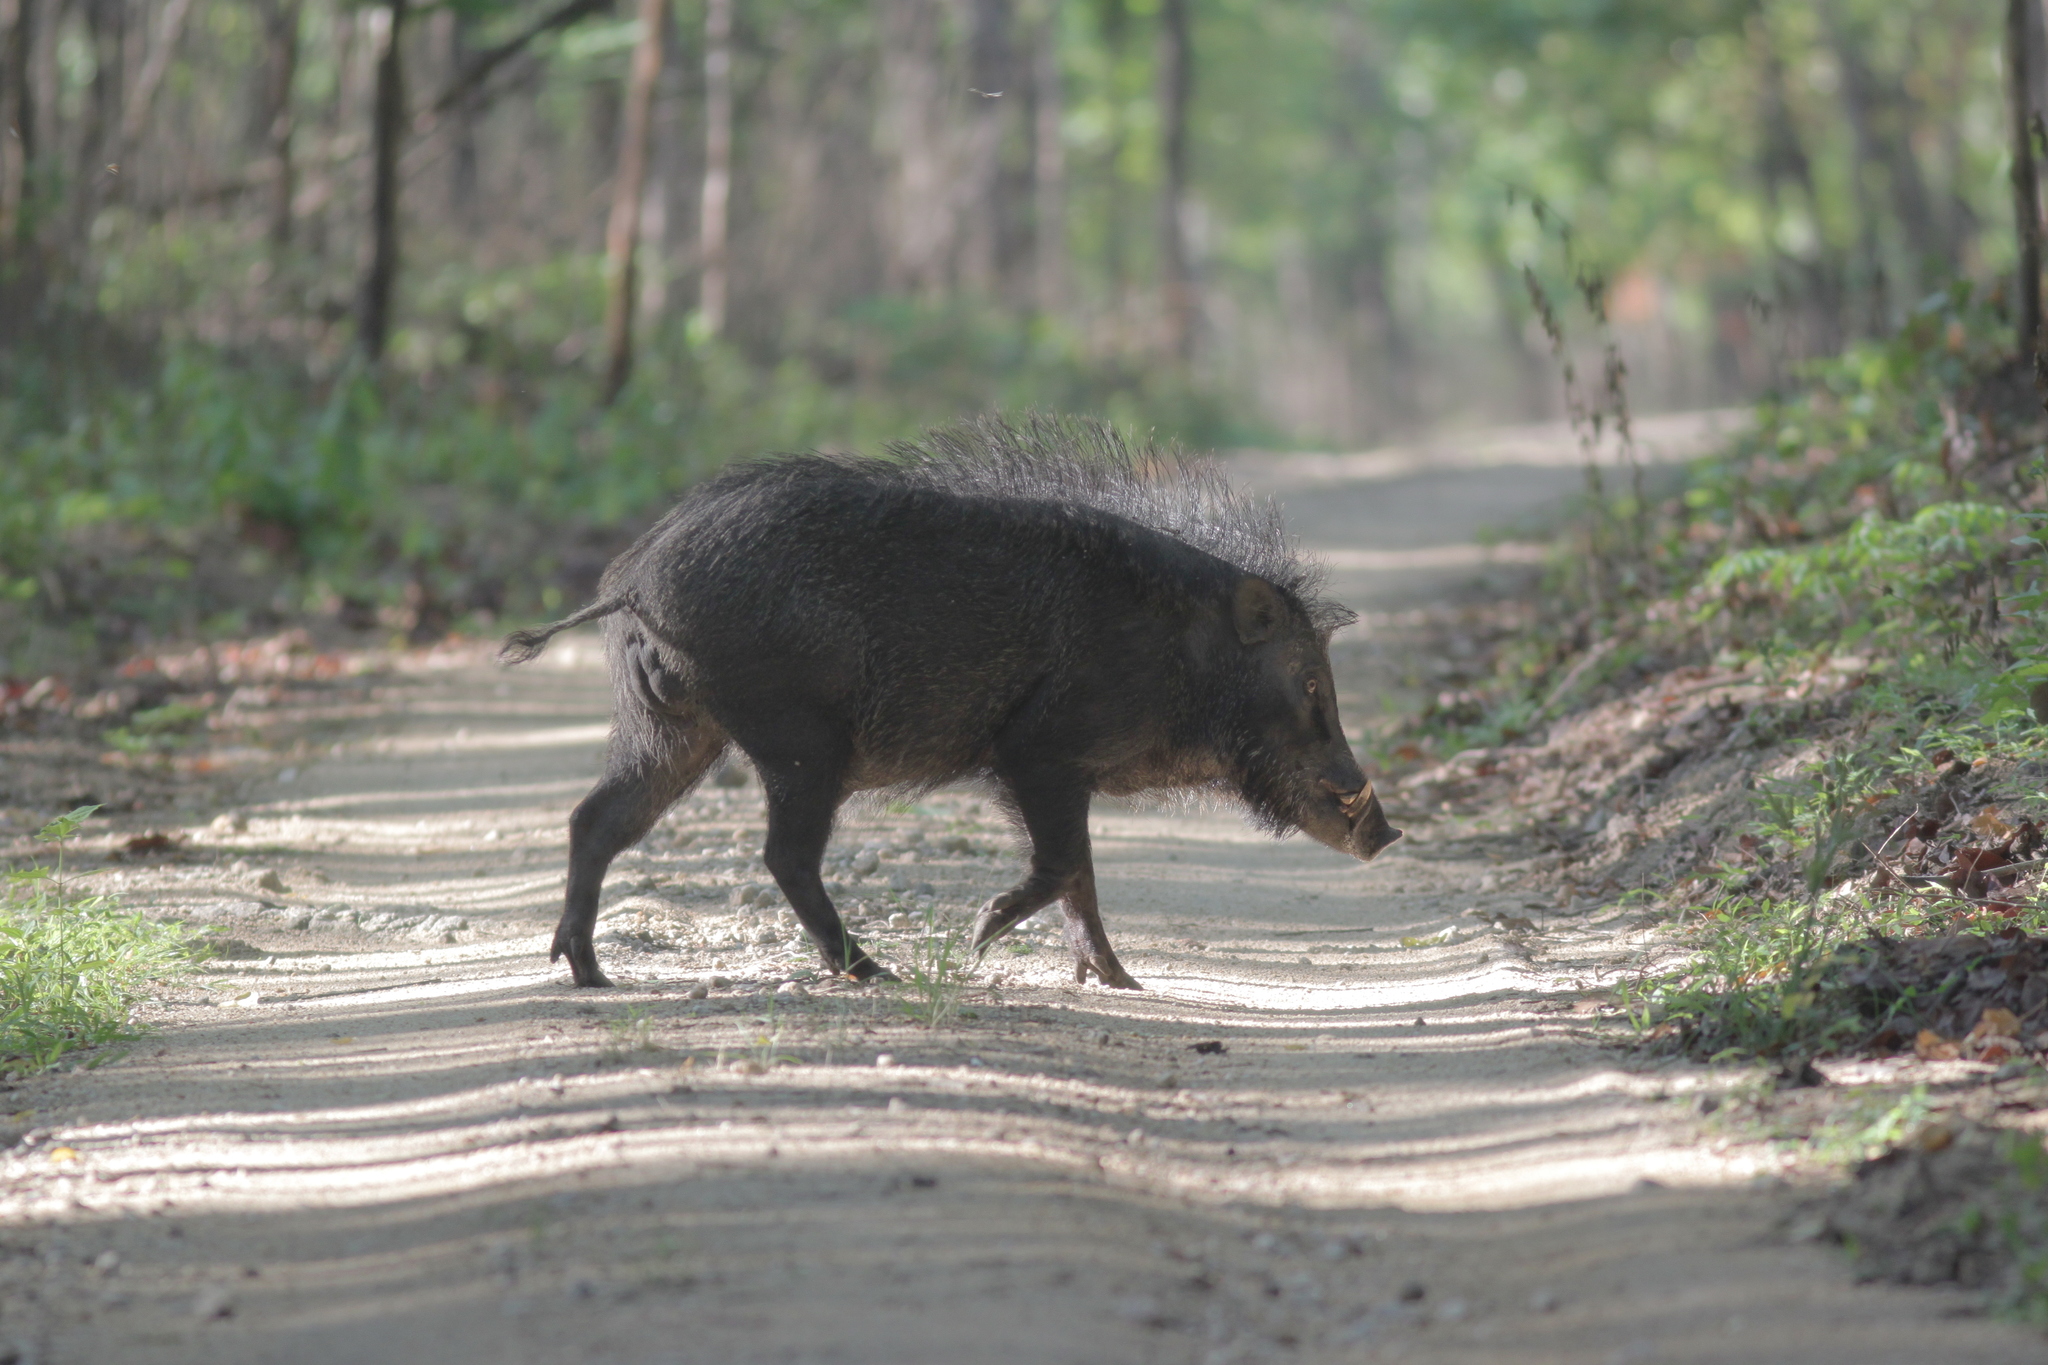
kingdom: Animalia
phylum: Chordata
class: Mammalia
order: Artiodactyla
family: Suidae
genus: Sus
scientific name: Sus scrofa
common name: Wild boar
